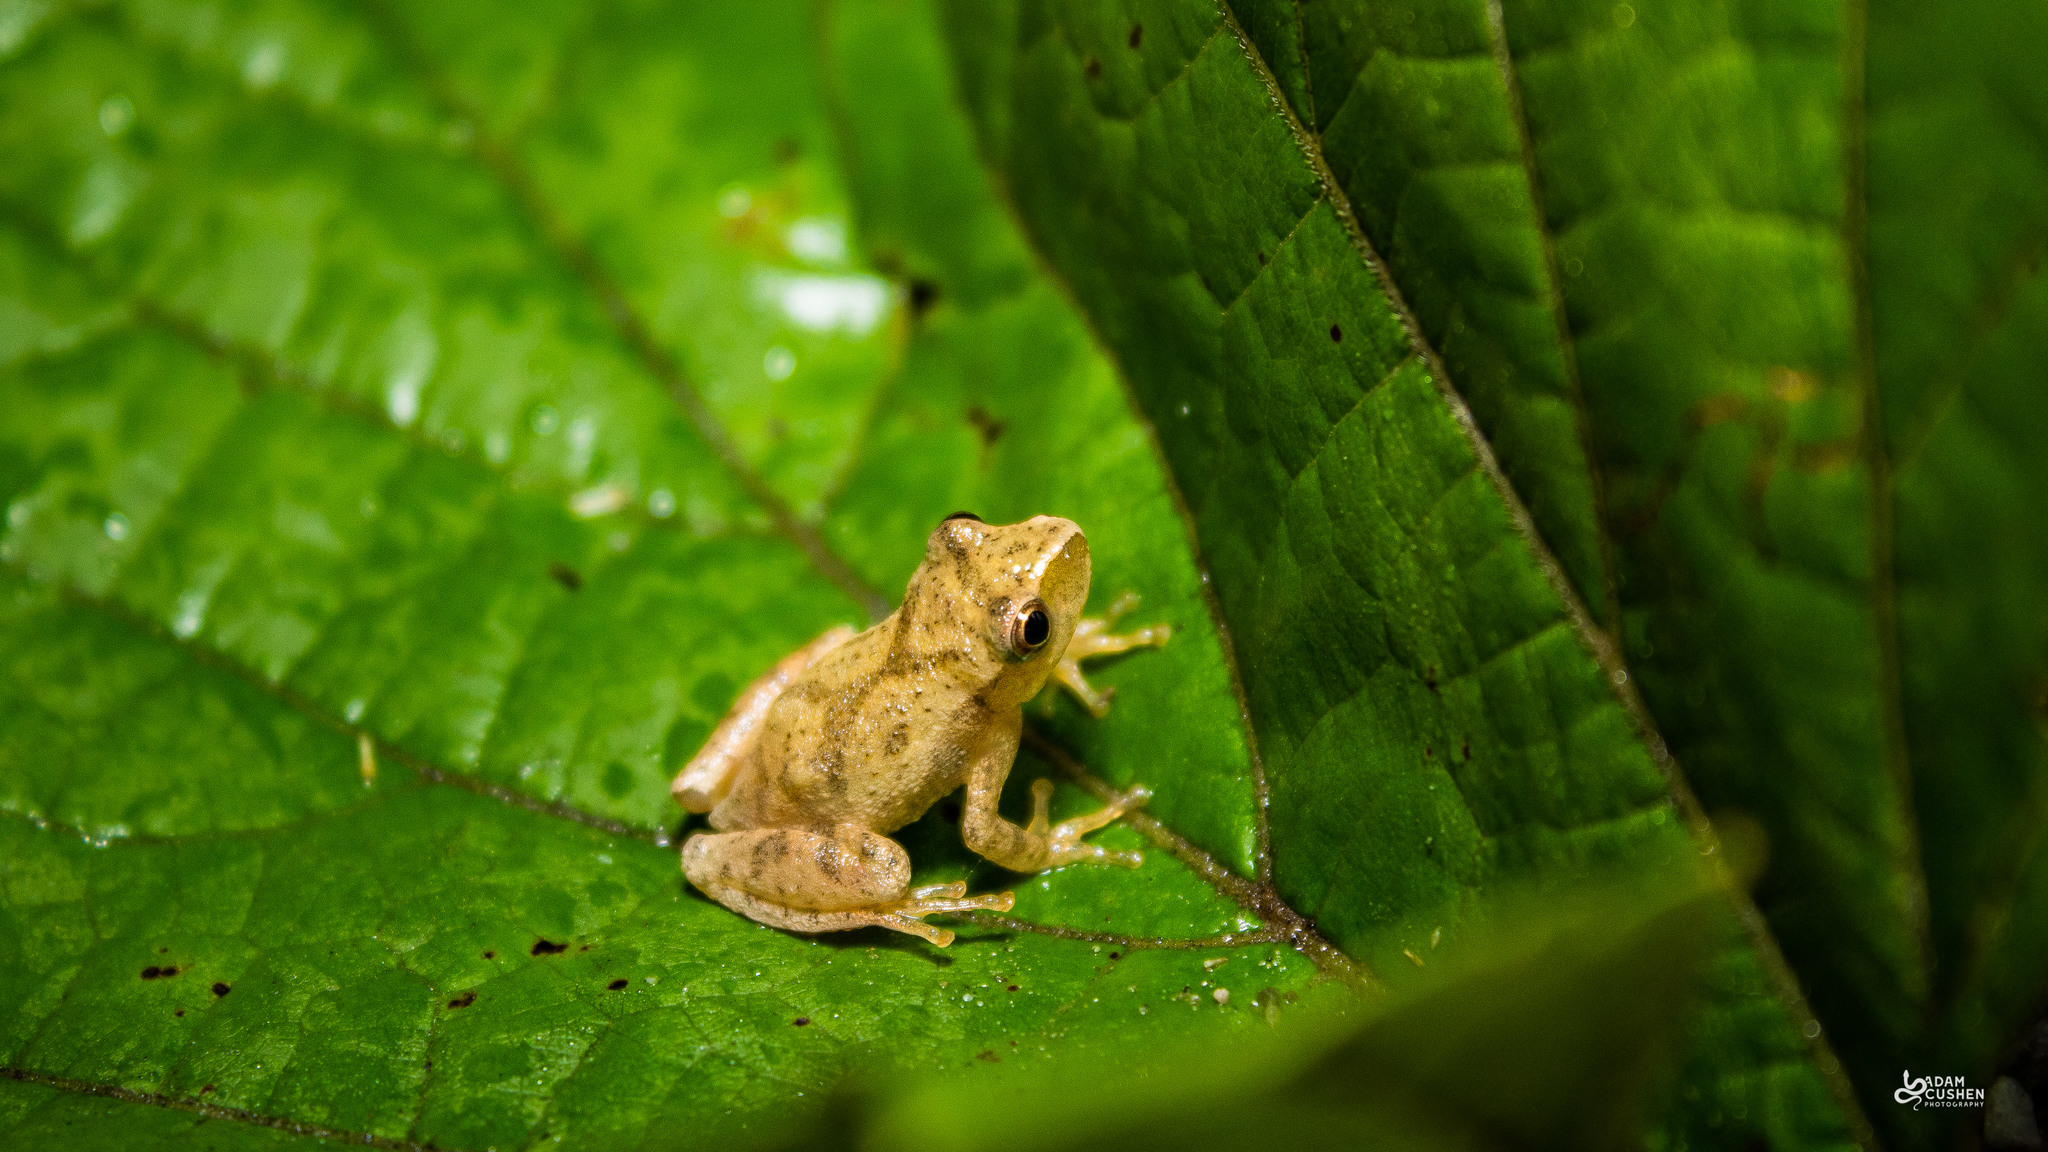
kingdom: Animalia
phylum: Chordata
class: Amphibia
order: Anura
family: Hylidae
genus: Pseudacris
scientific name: Pseudacris crucifer
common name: Spring peeper
